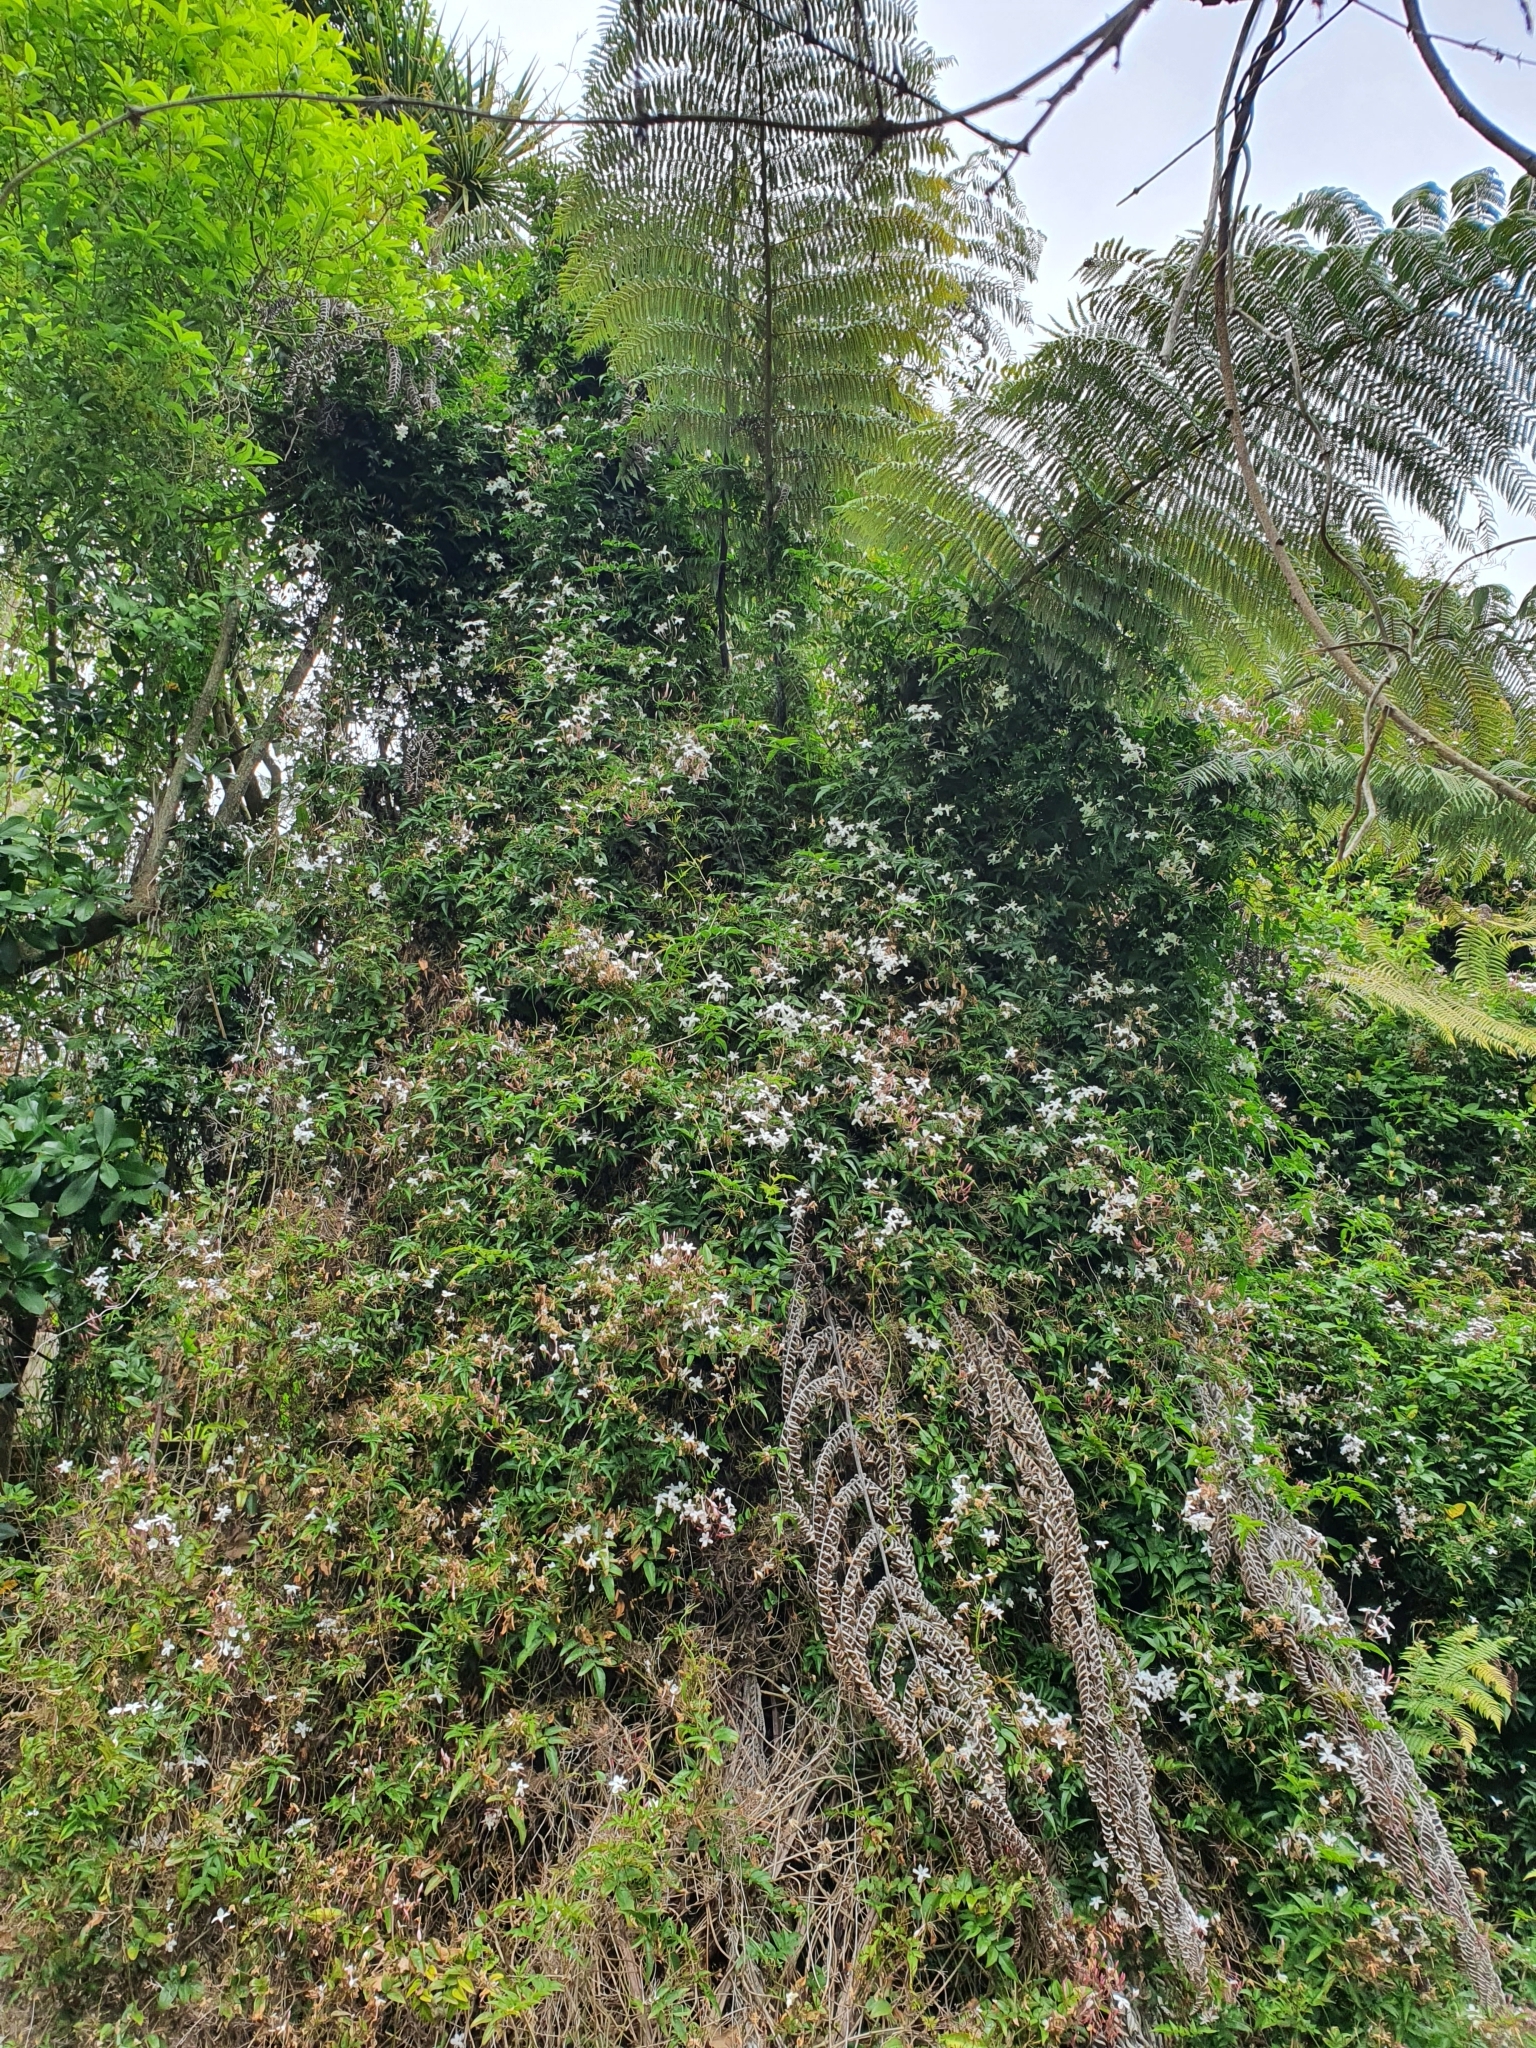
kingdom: Plantae
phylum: Tracheophyta
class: Magnoliopsida
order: Lamiales
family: Oleaceae
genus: Jasminum
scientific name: Jasminum polyanthum
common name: Pink jasmine
